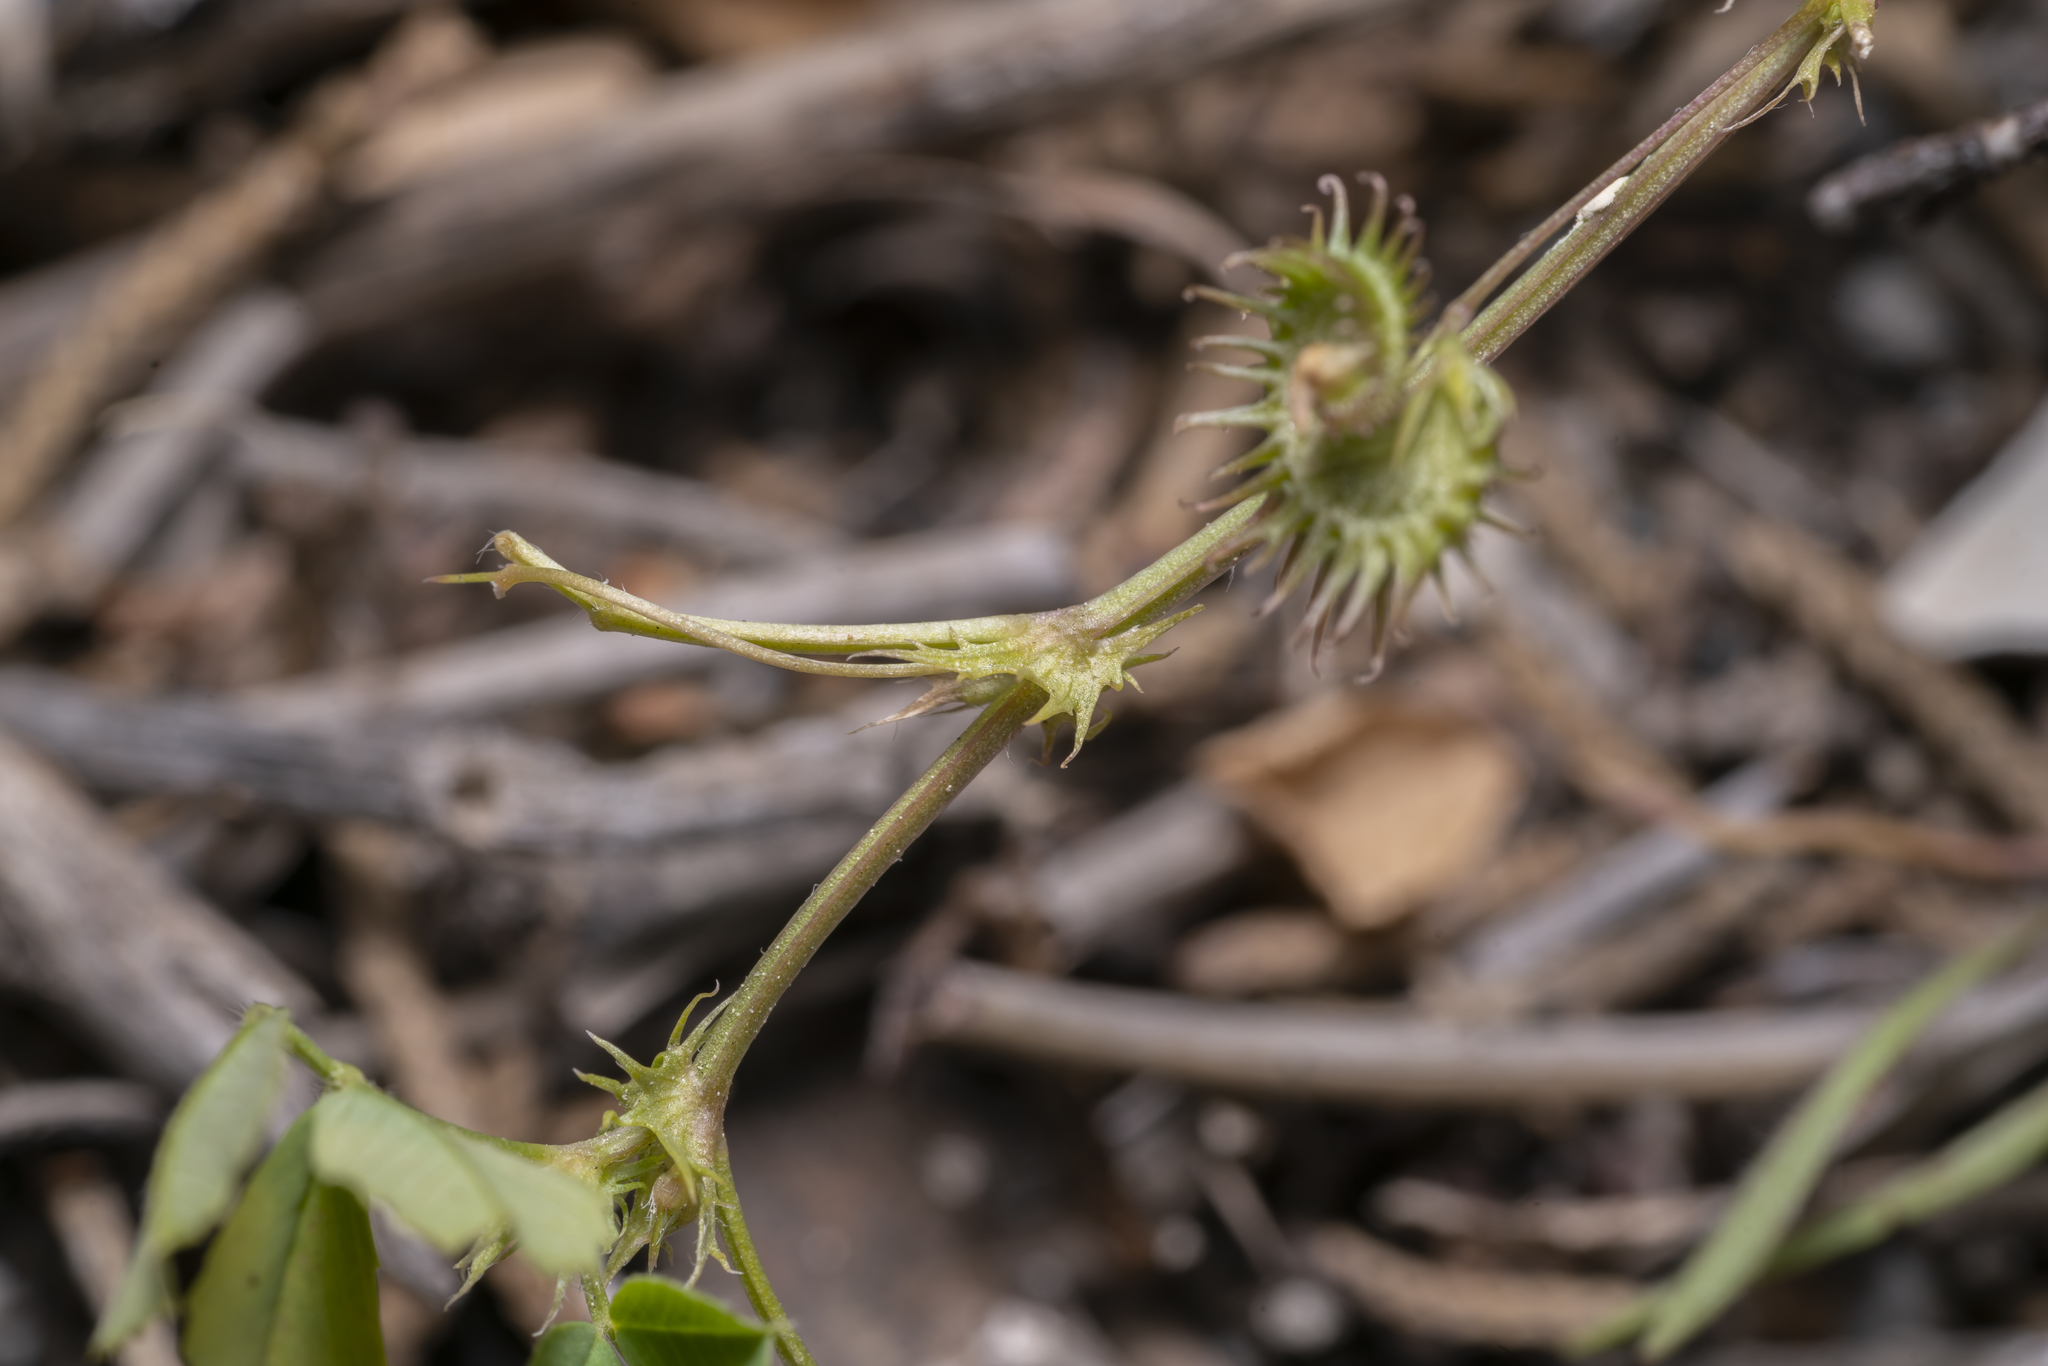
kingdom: Plantae
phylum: Tracheophyta
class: Magnoliopsida
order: Fabales
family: Fabaceae
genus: Medicago
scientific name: Medicago polymorpha
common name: Burclover
